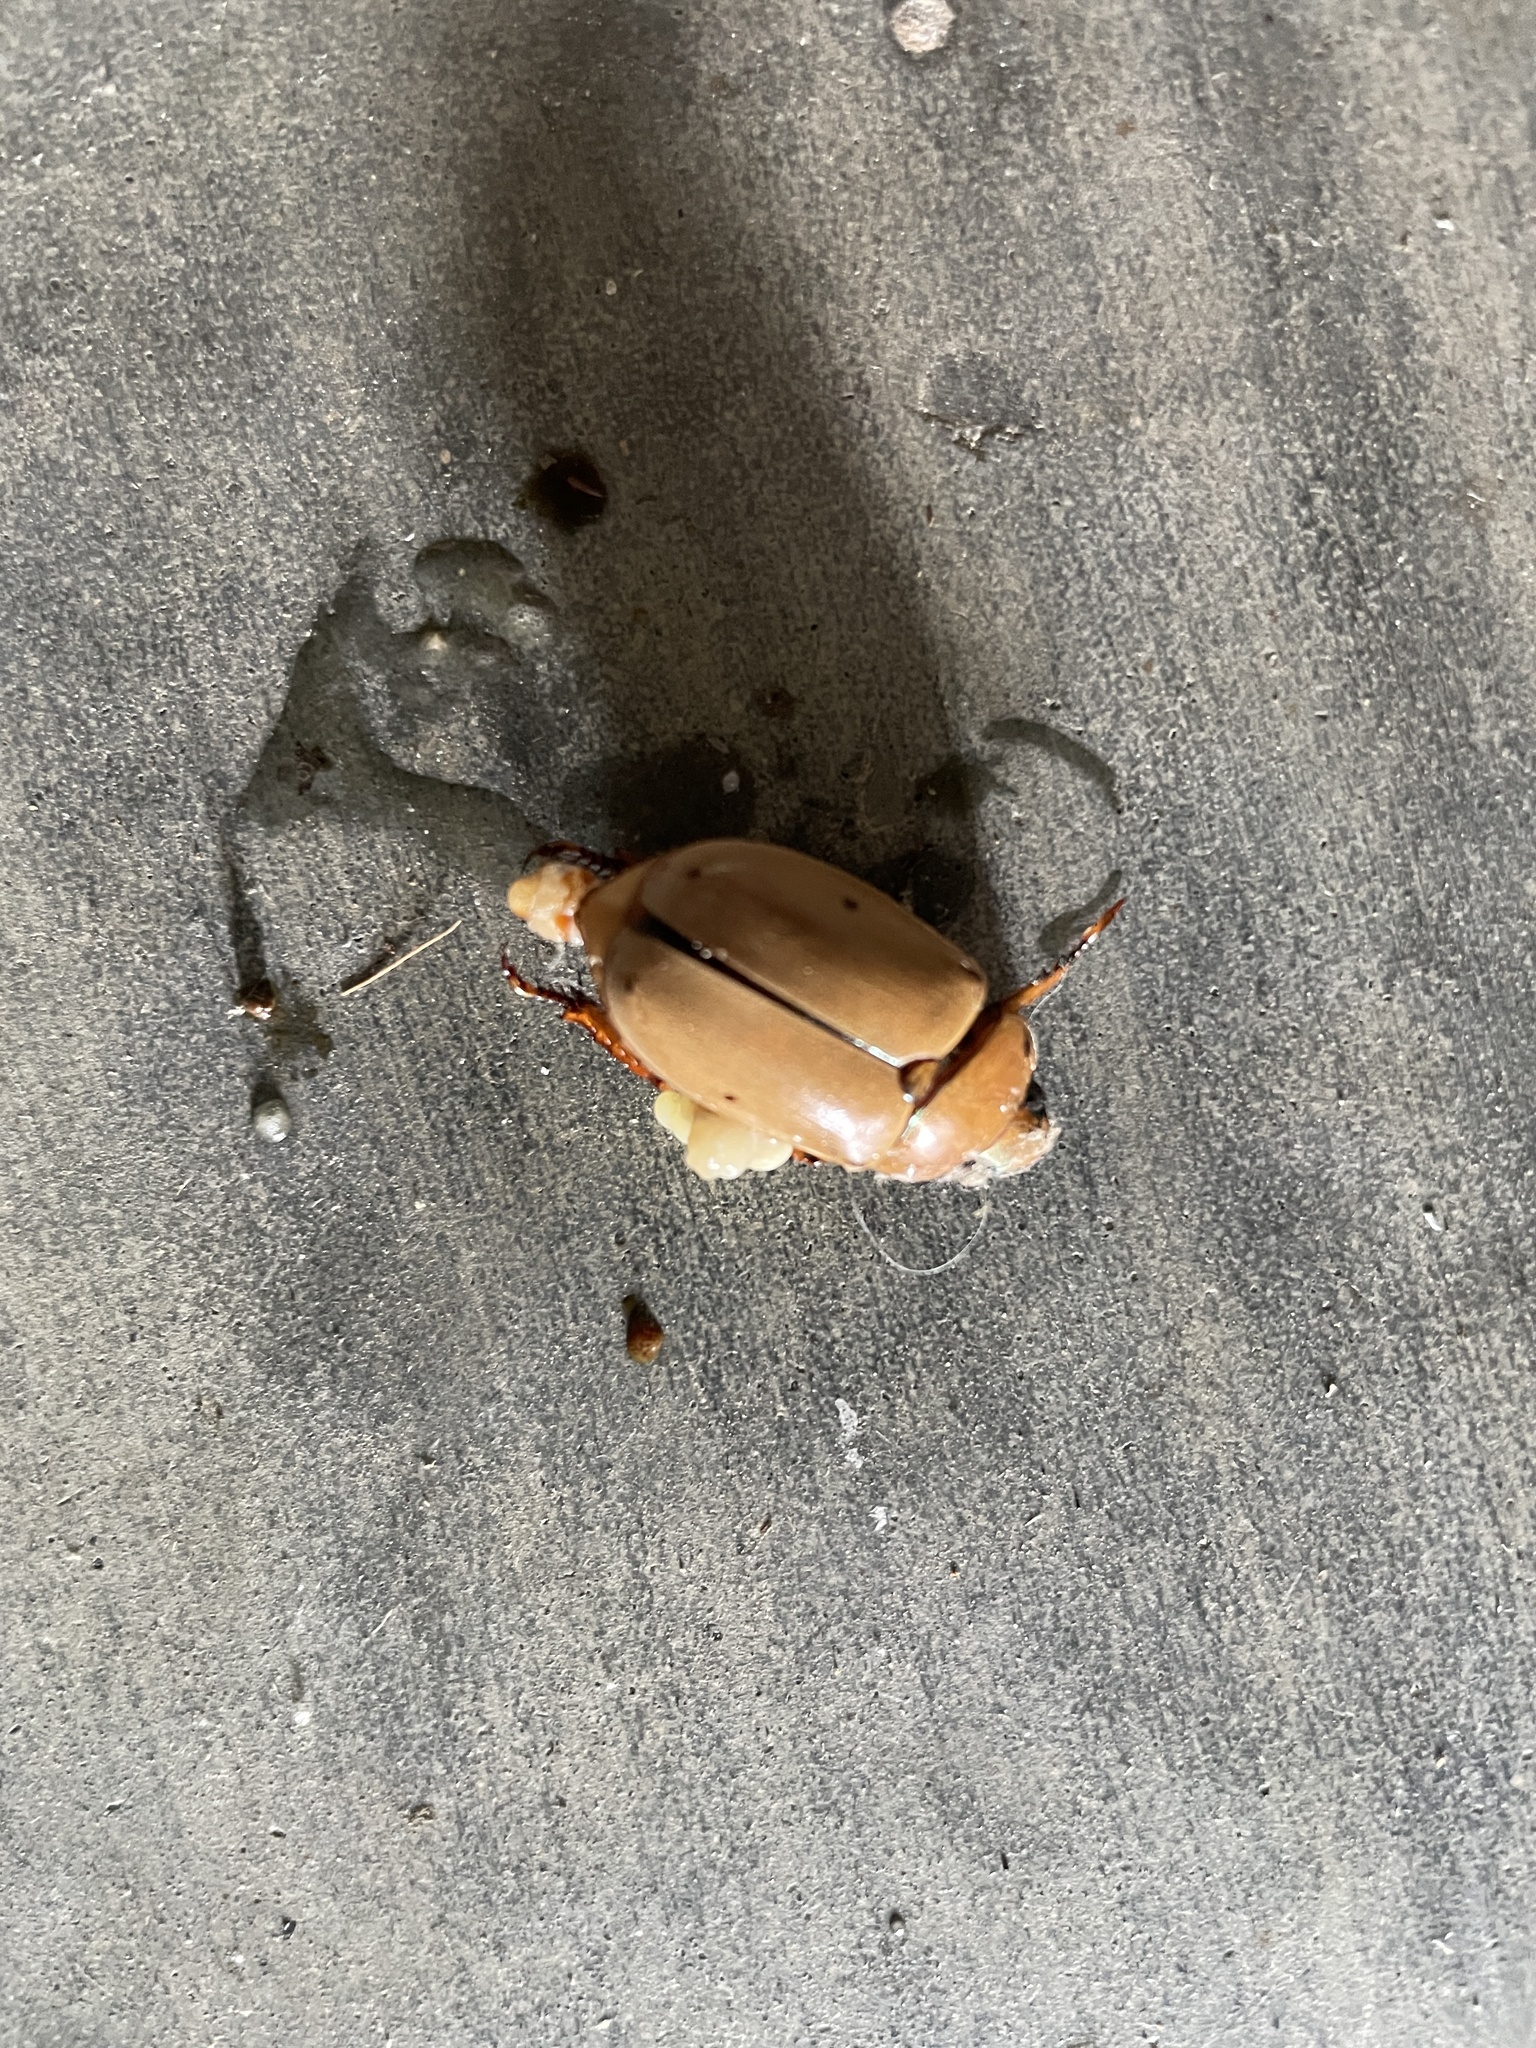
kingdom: Animalia
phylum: Arthropoda
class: Insecta
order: Coleoptera
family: Scarabaeidae
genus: Pelidnota
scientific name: Pelidnota punctata
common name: Grapevine beetle
